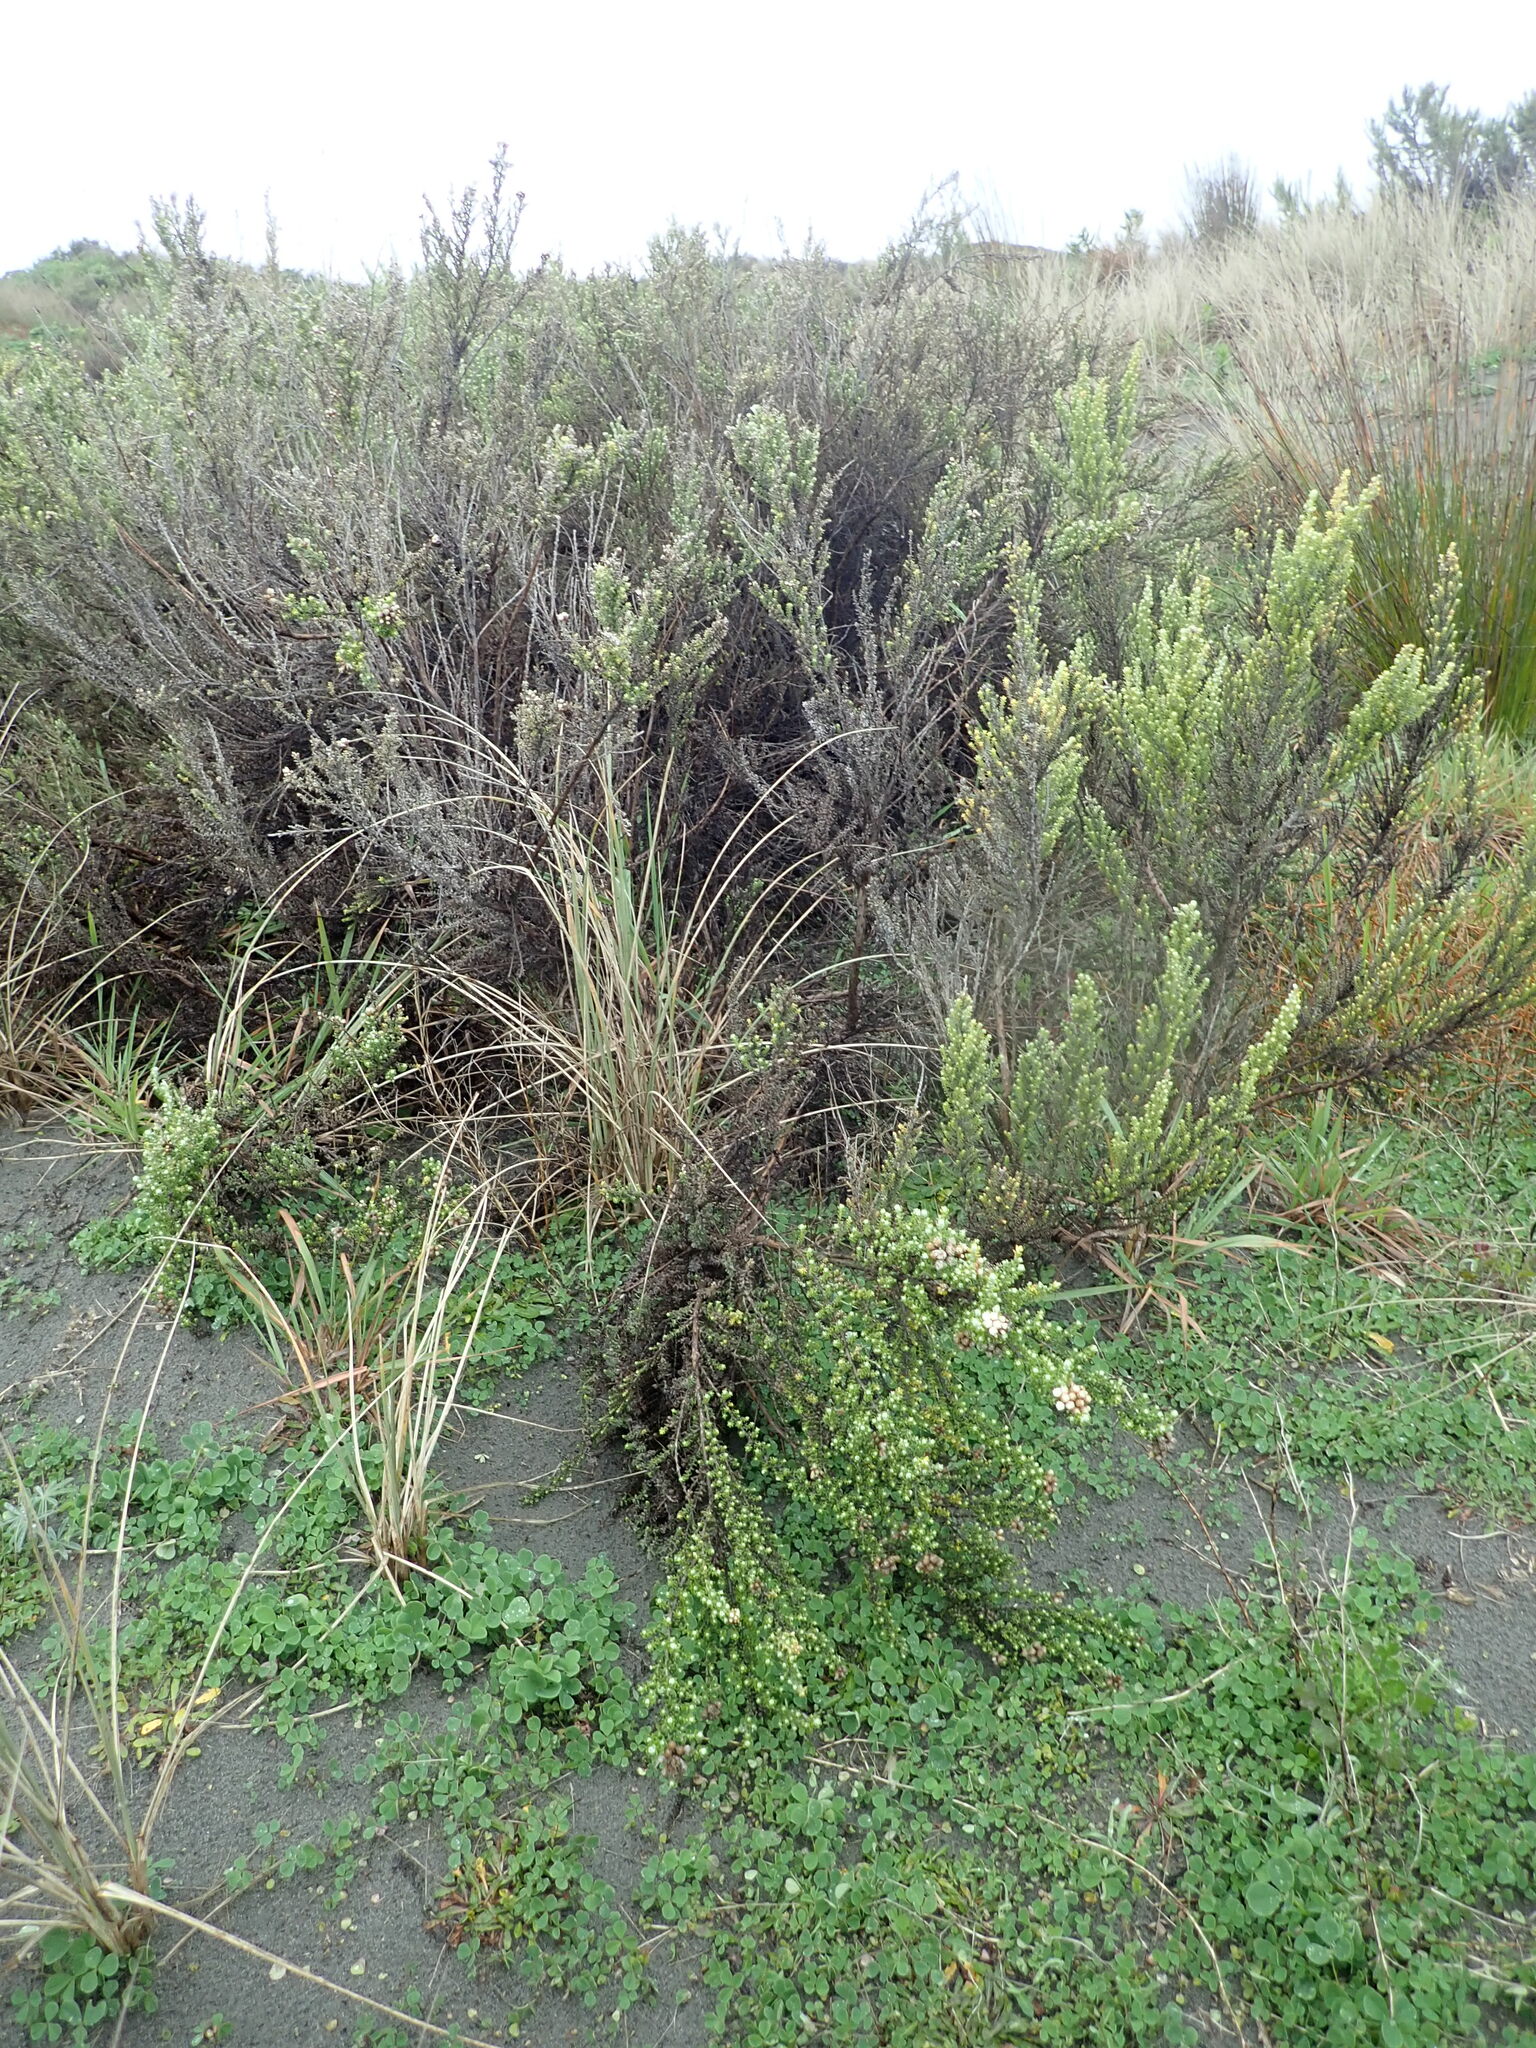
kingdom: Plantae
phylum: Tracheophyta
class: Magnoliopsida
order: Asterales
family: Asteraceae
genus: Ozothamnus
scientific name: Ozothamnus leptophyllus
